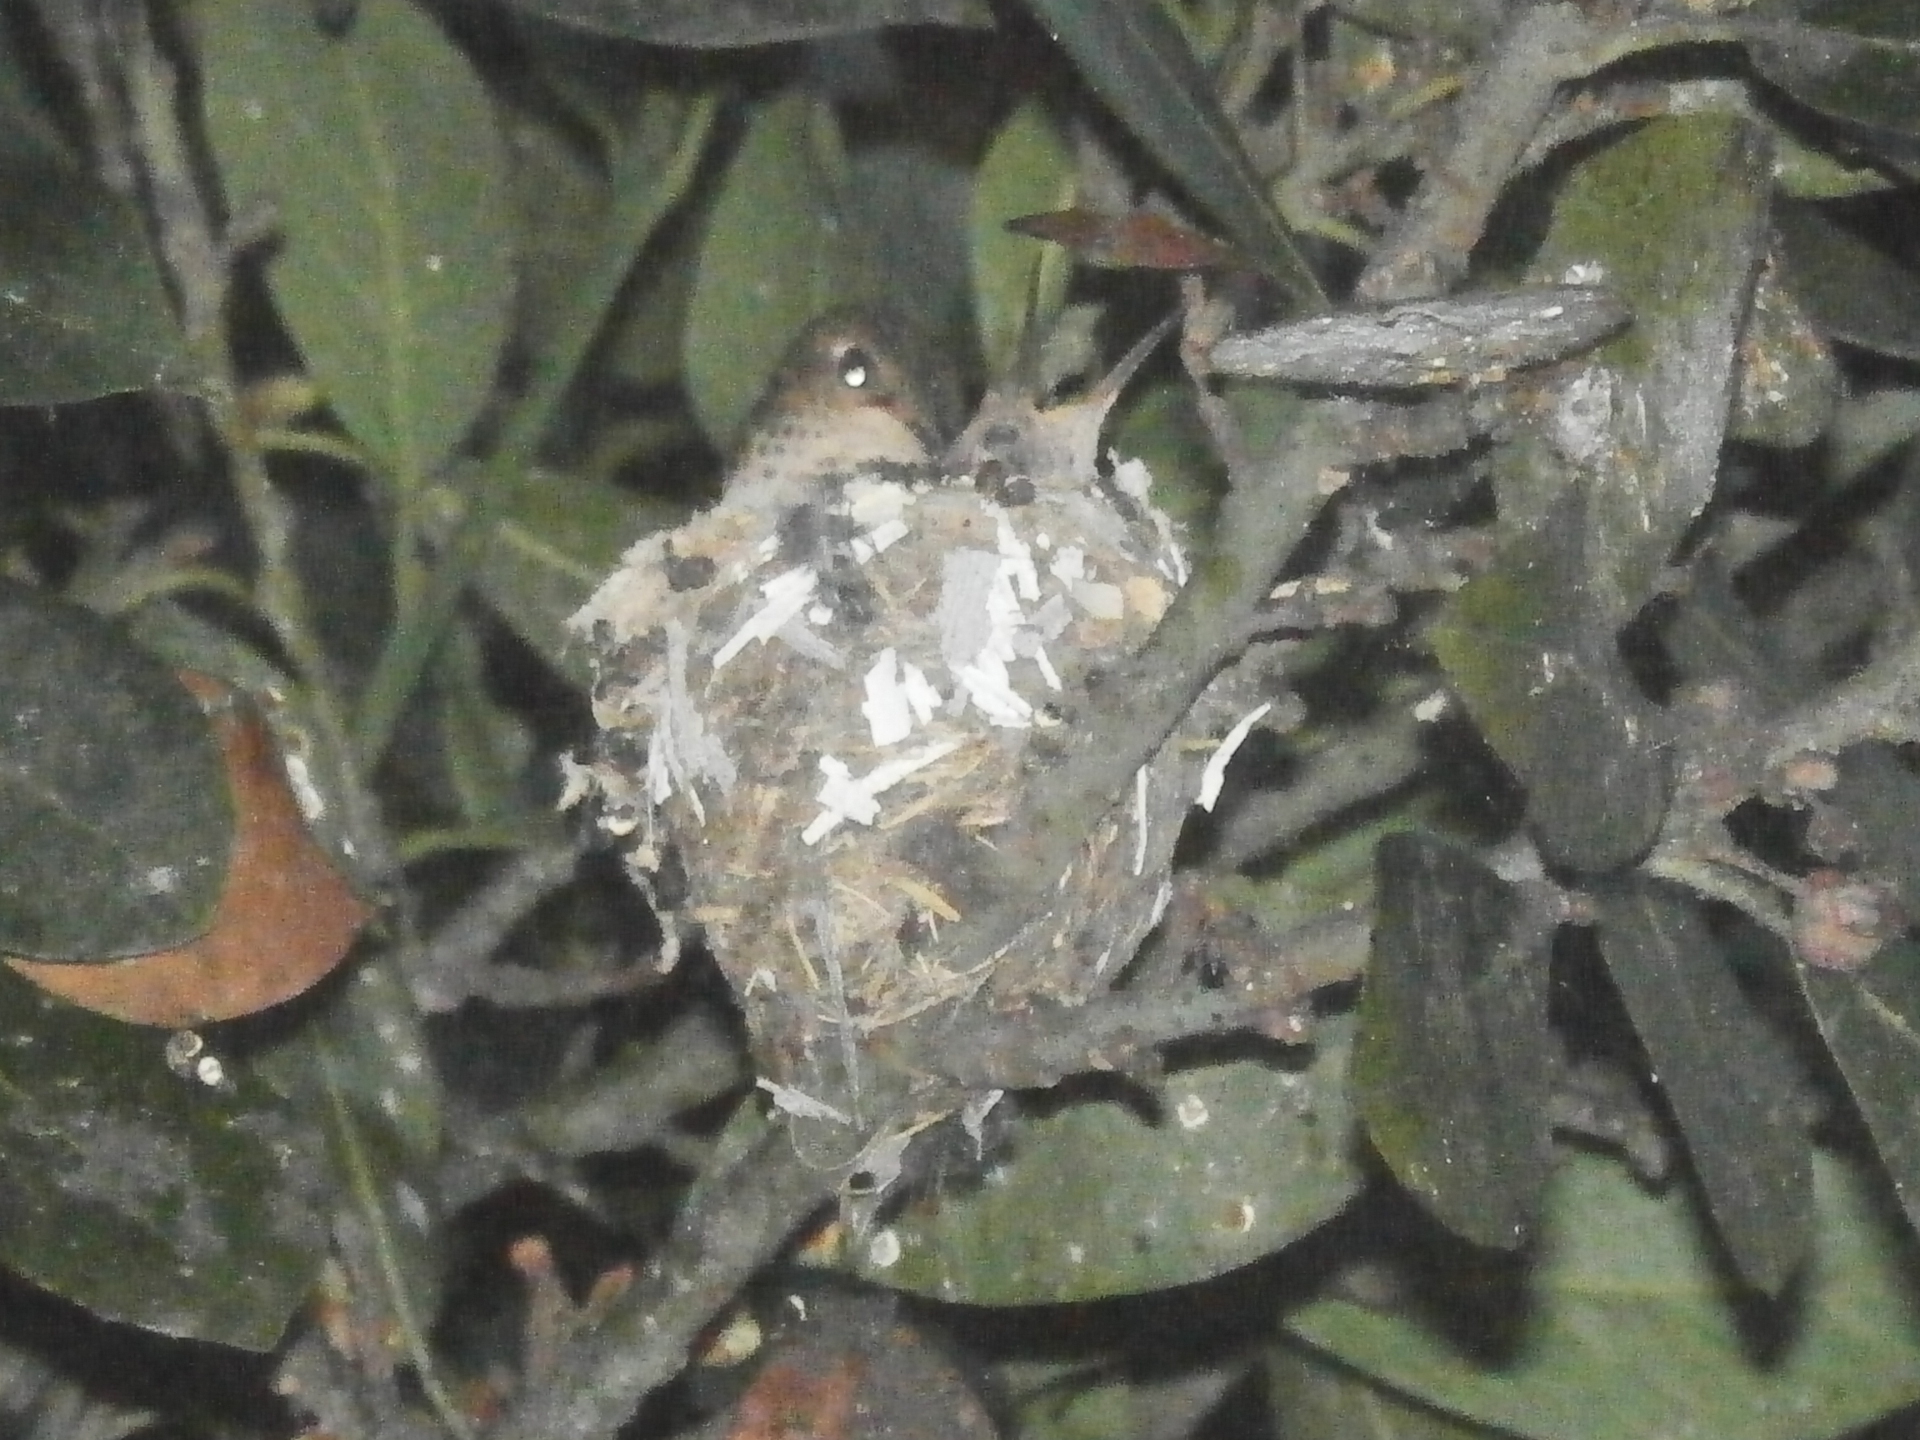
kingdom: Animalia
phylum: Chordata
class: Aves
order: Apodiformes
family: Trochilidae
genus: Selasphorus
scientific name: Selasphorus sasin
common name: Allen's hummingbird
